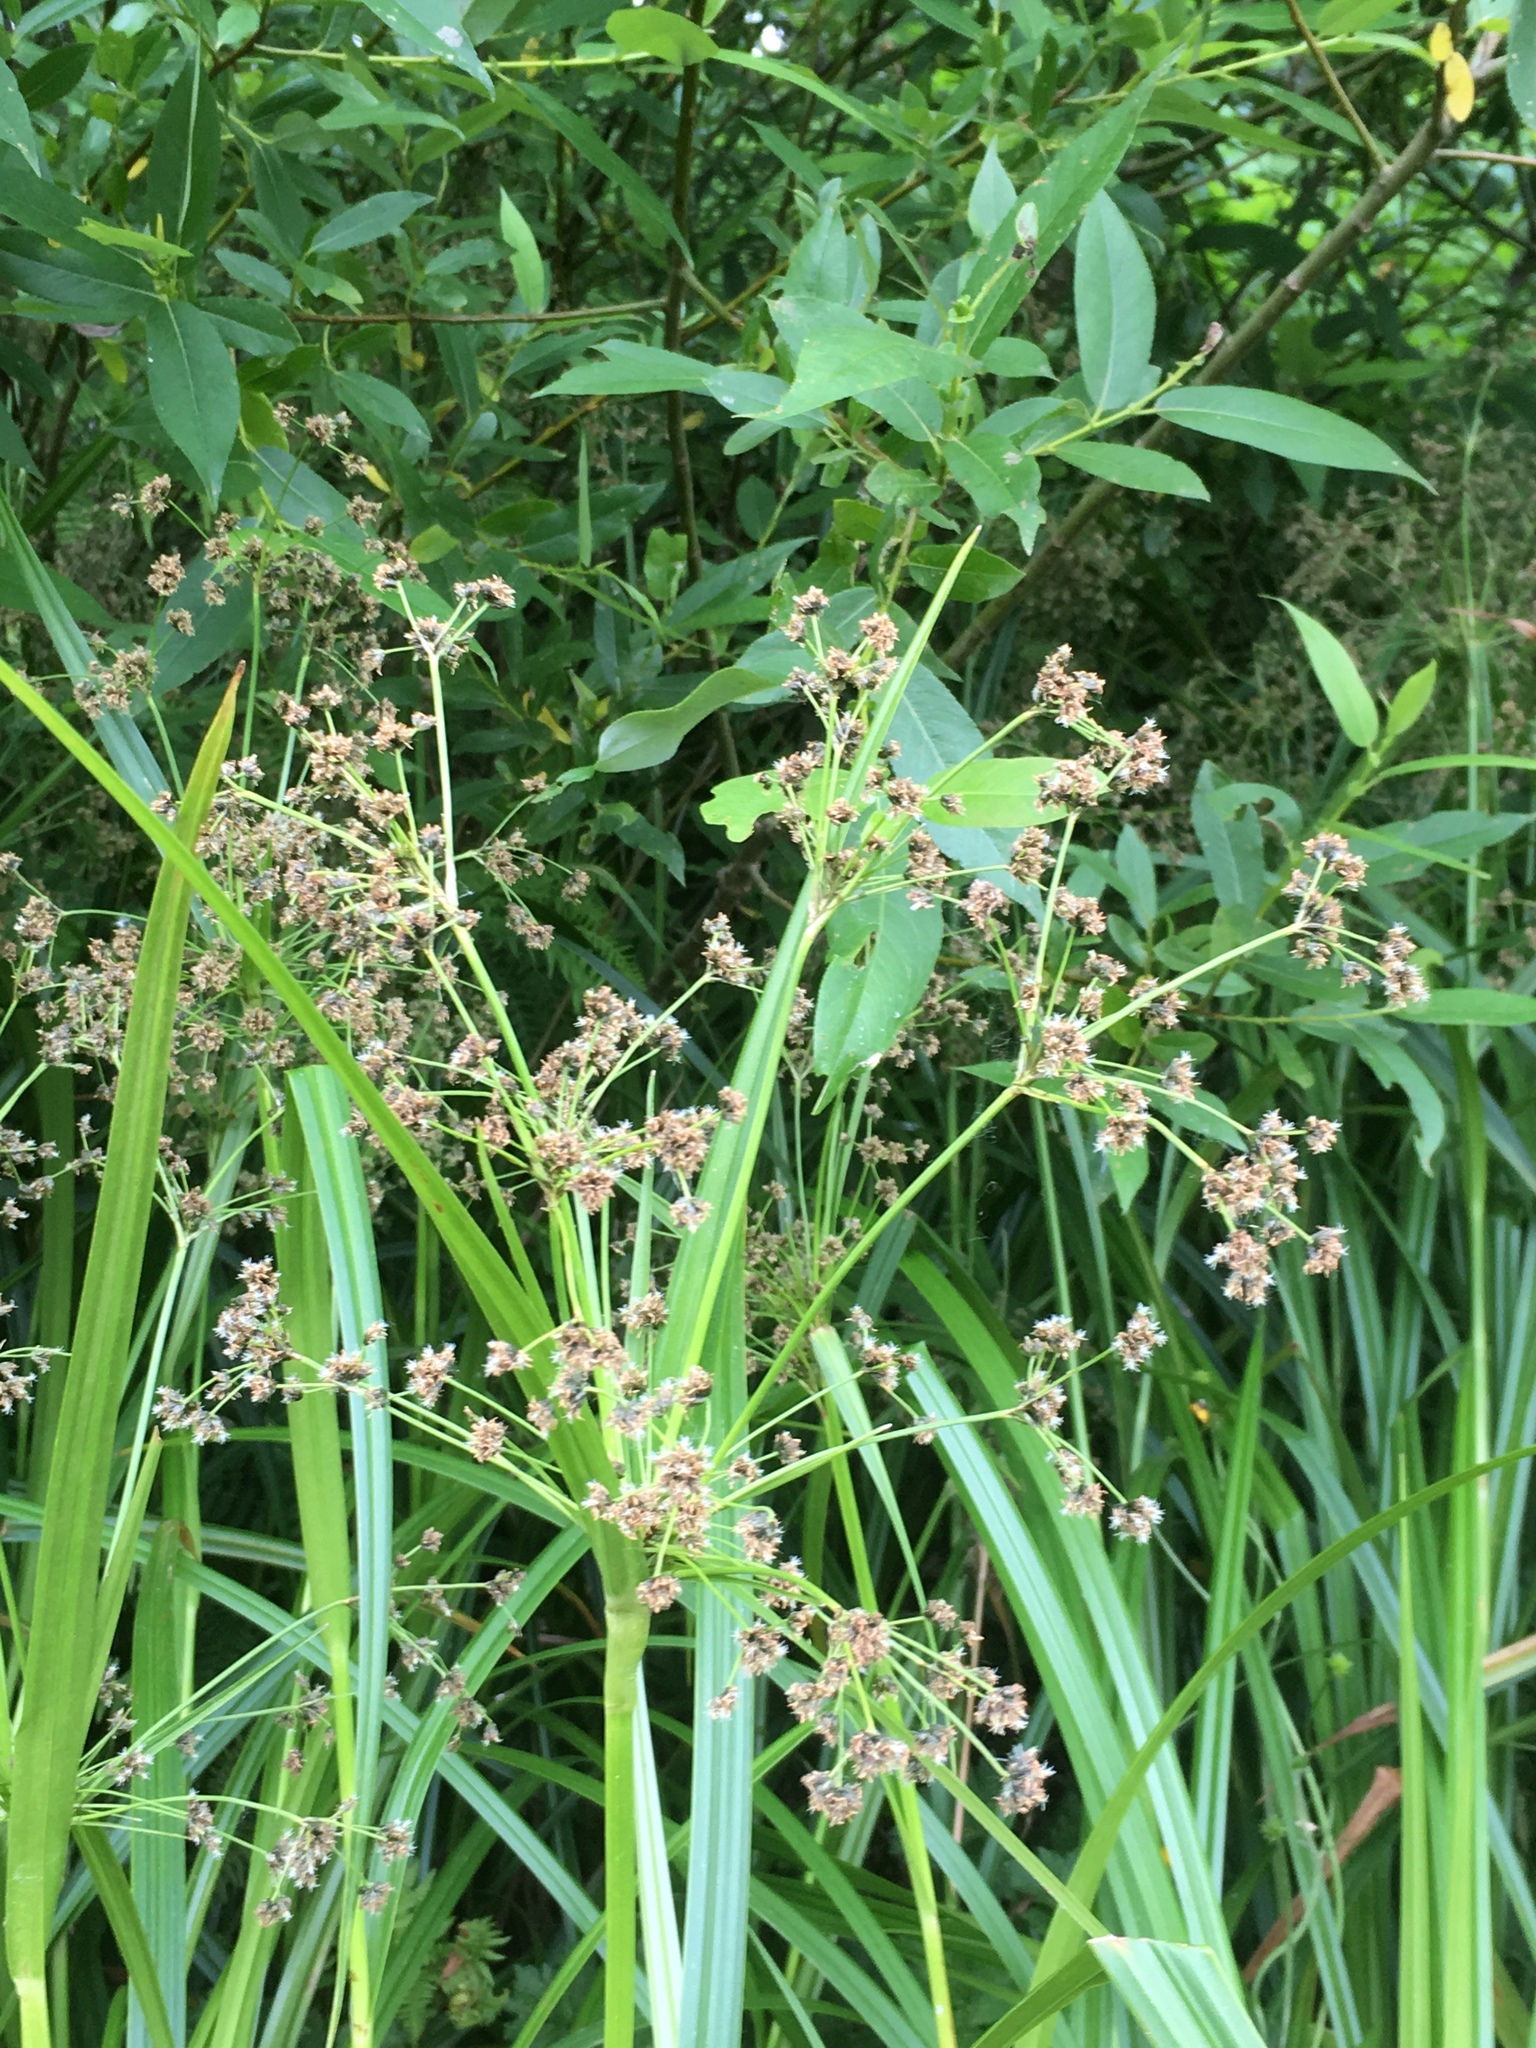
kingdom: Plantae
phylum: Tracheophyta
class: Liliopsida
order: Poales
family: Cyperaceae
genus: Scirpus
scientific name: Scirpus microcarpus
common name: Panicled bulrush
